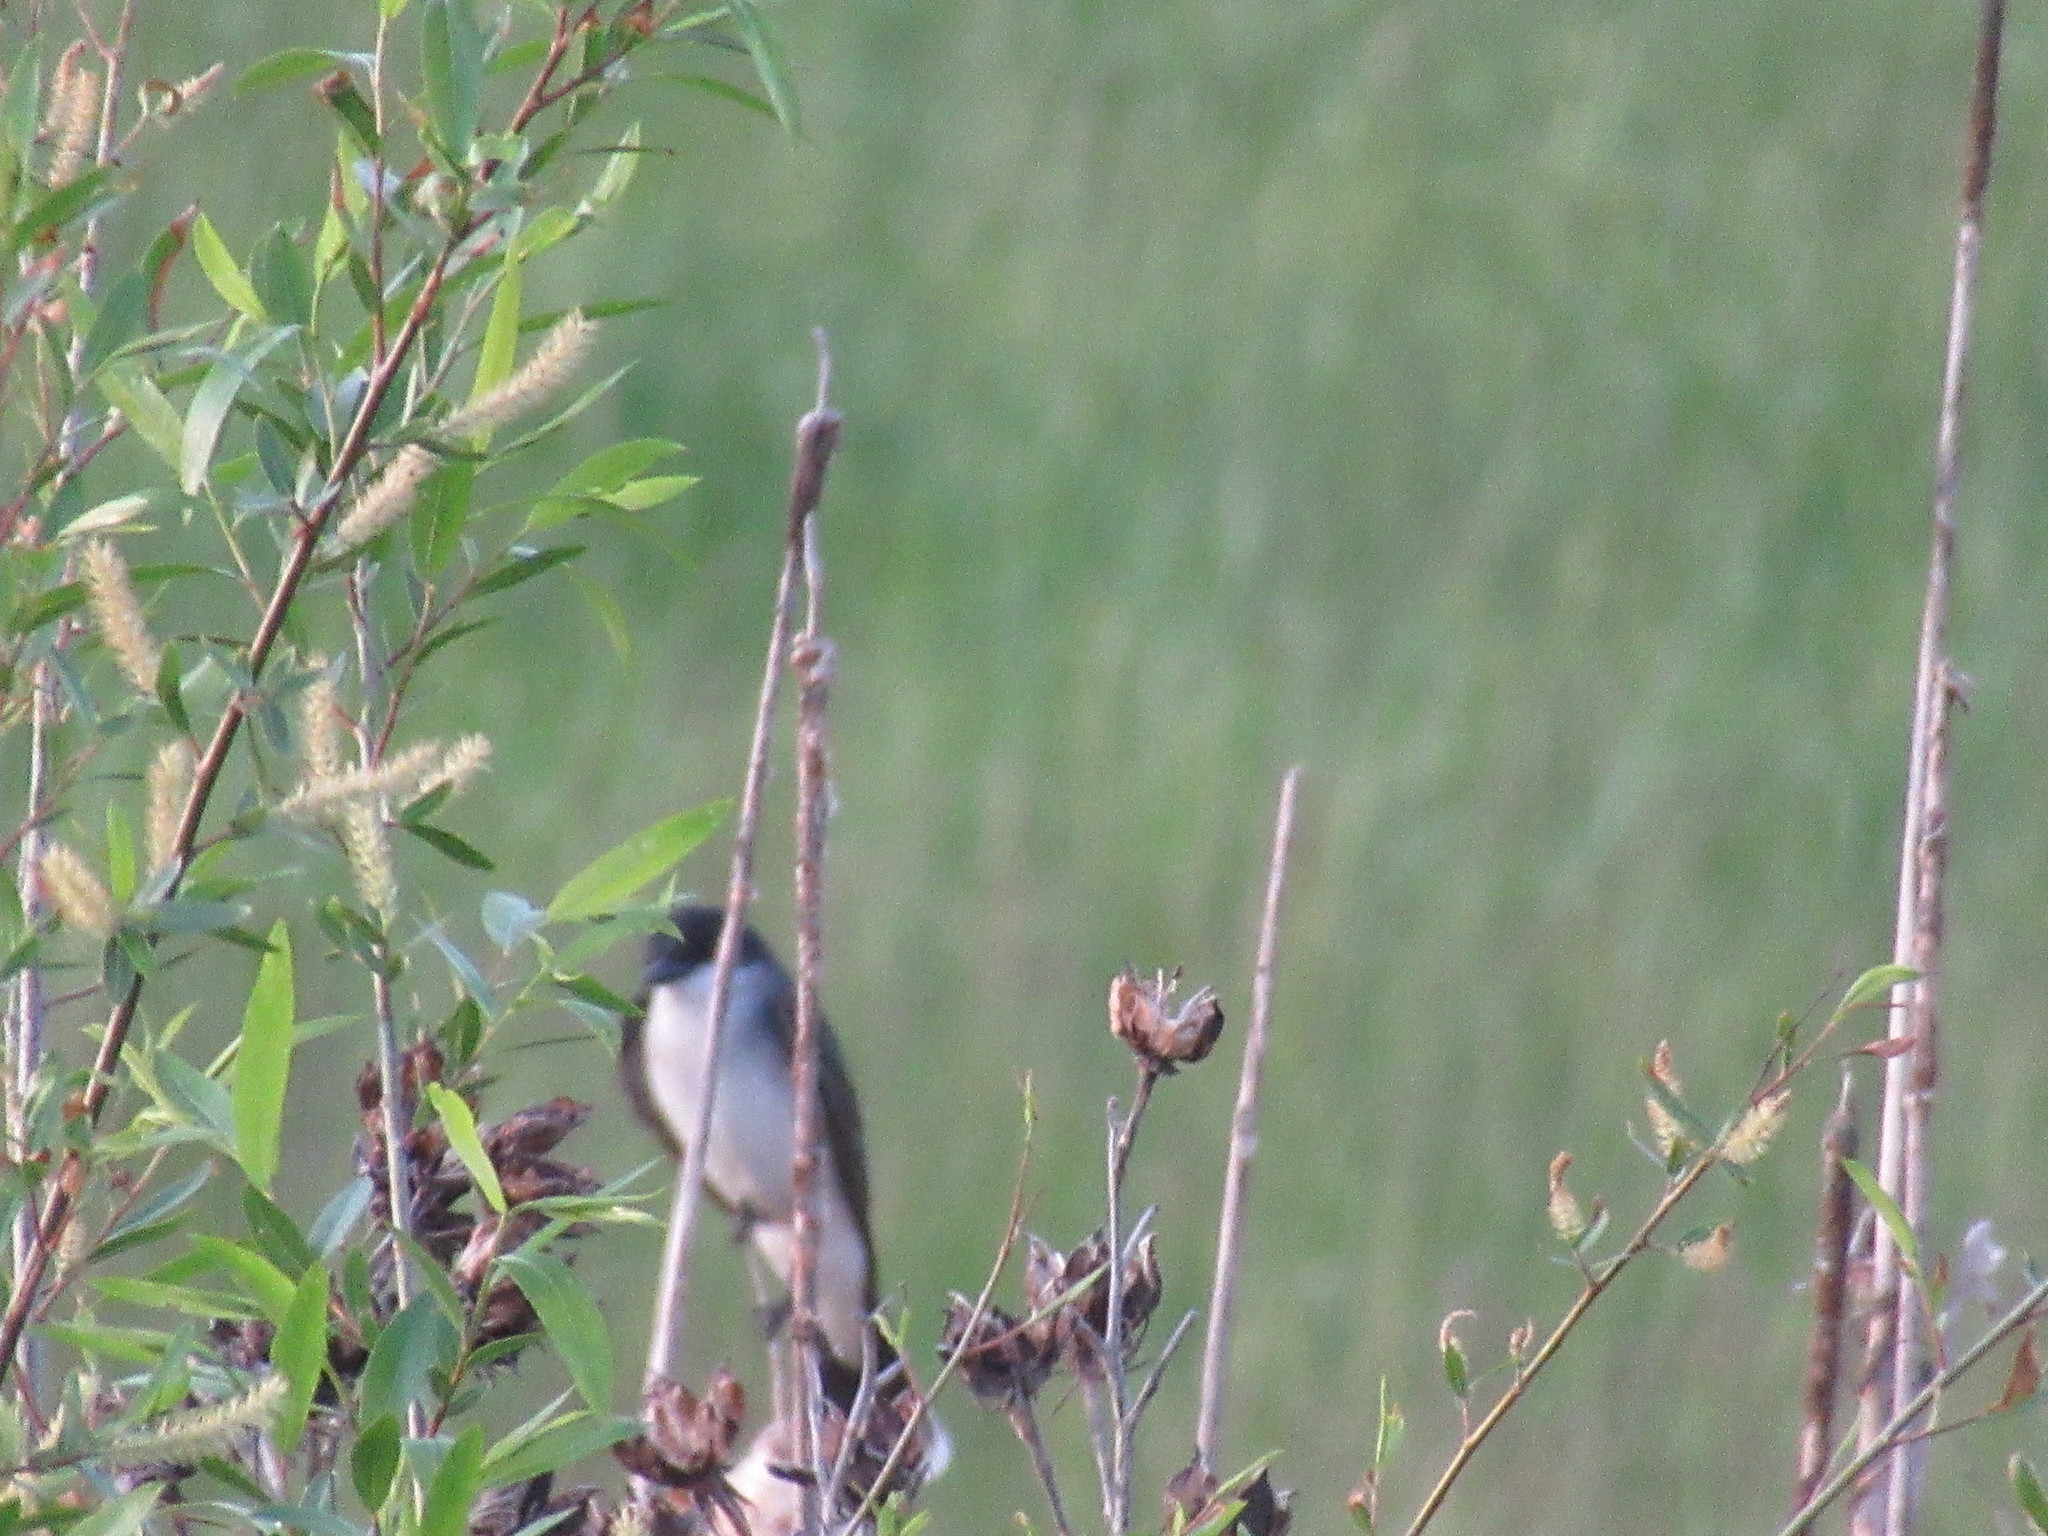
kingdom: Animalia
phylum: Chordata
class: Aves
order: Passeriformes
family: Tyrannidae
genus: Tyrannus
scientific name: Tyrannus tyrannus
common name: Eastern kingbird
